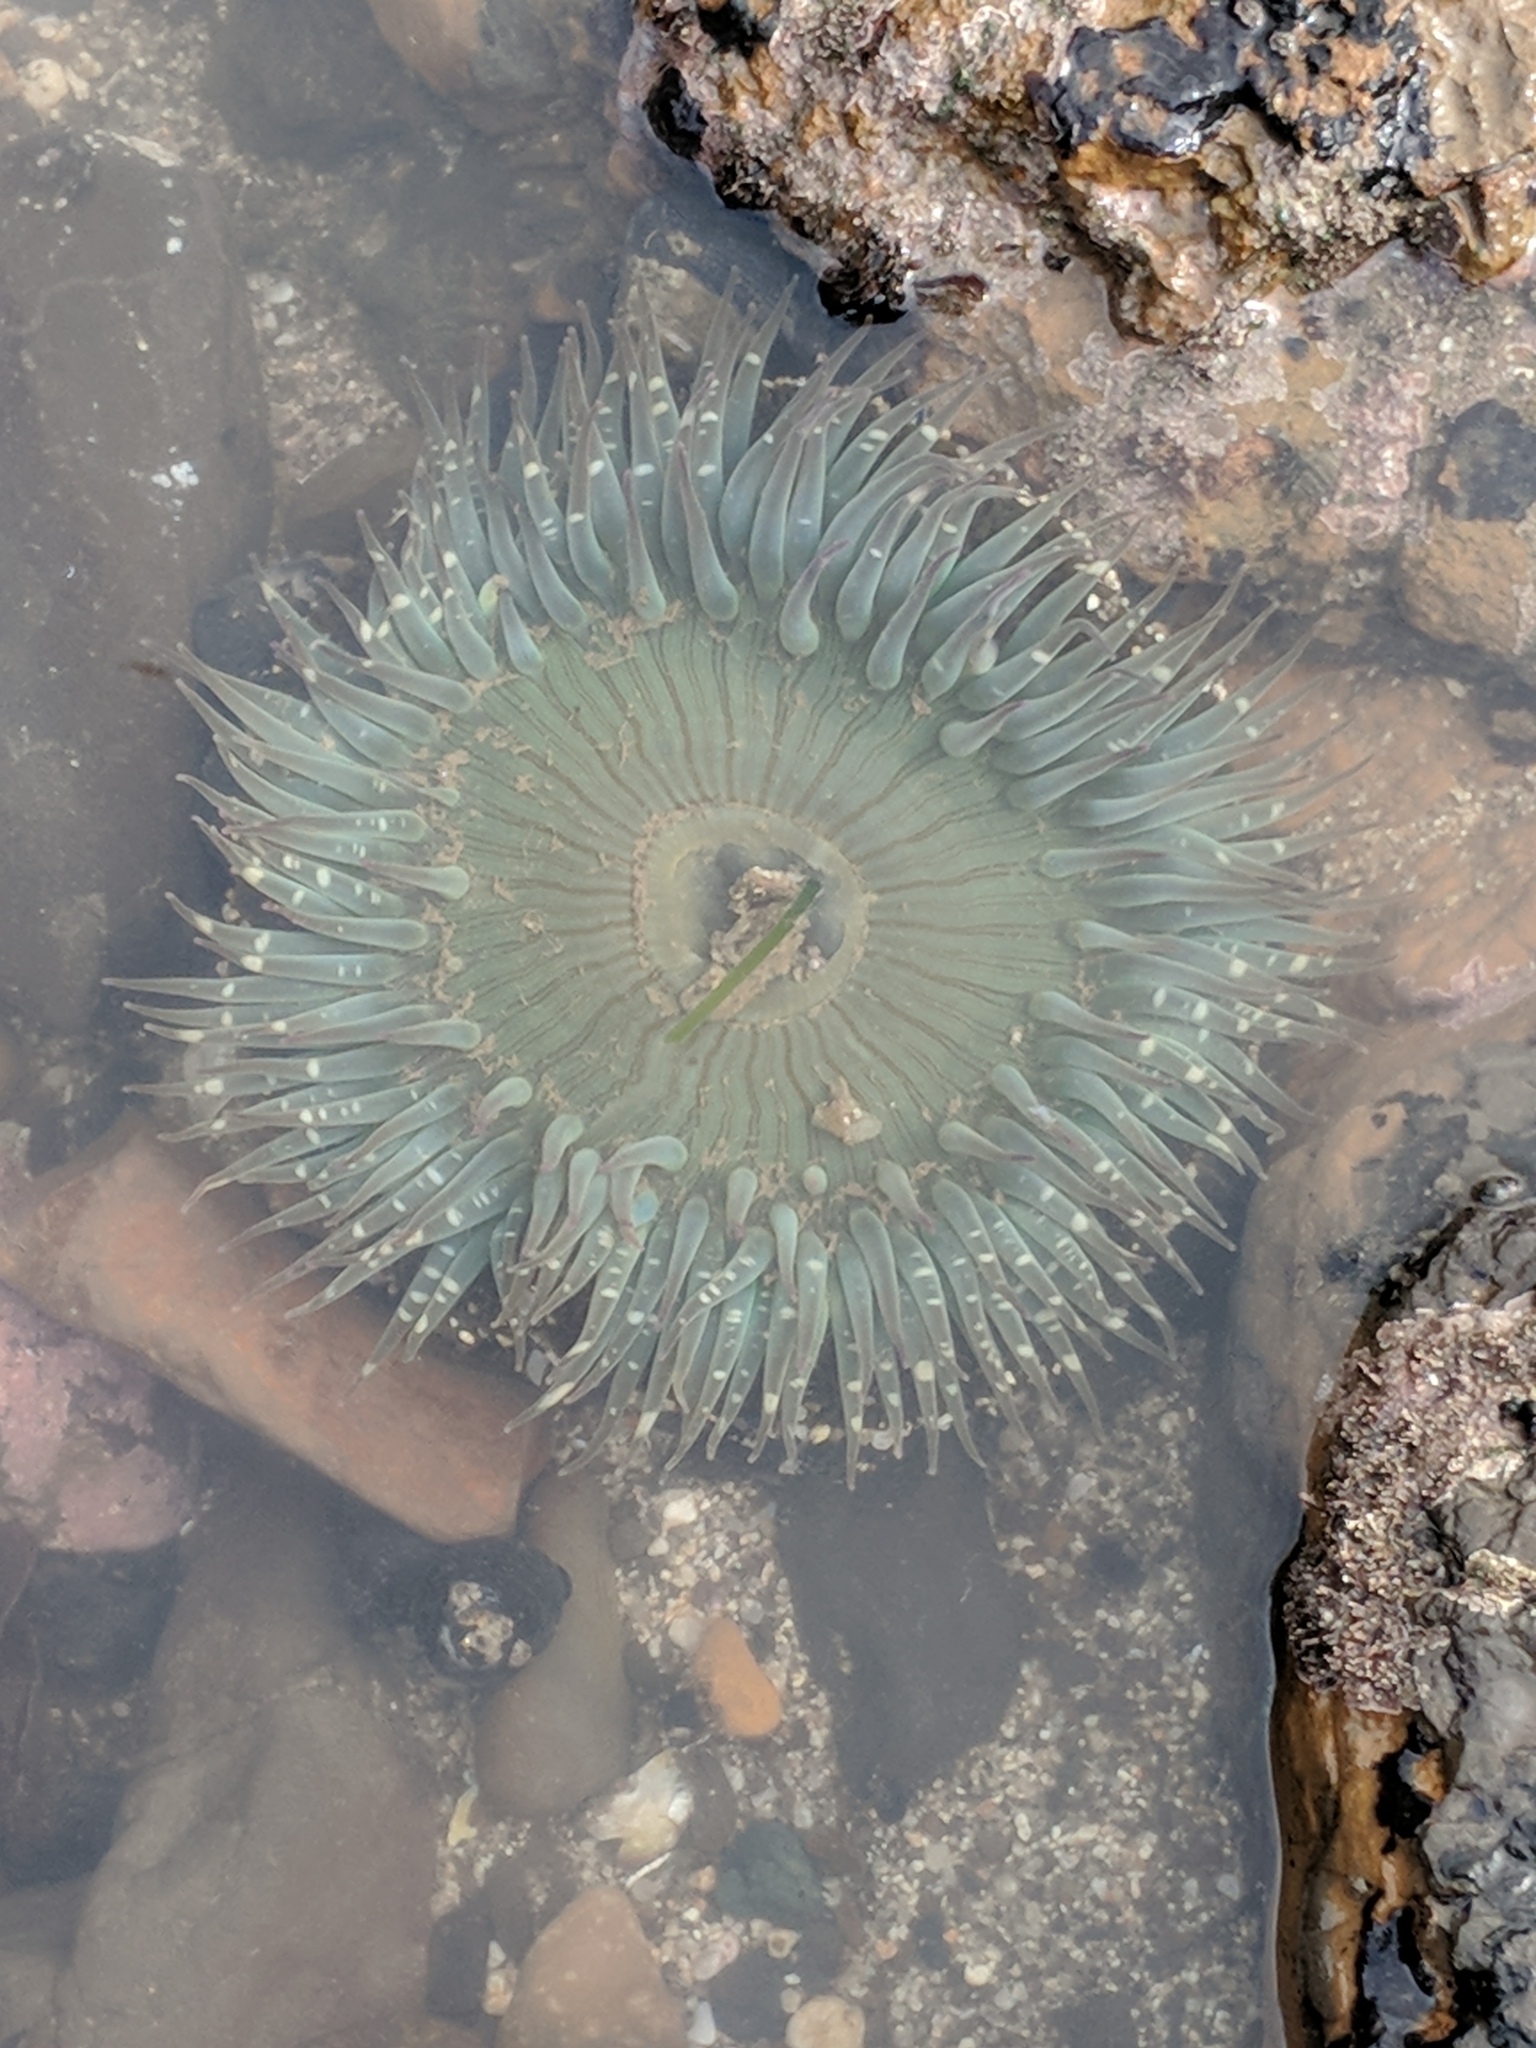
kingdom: Animalia
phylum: Cnidaria
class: Anthozoa
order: Actiniaria
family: Actiniidae
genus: Anthopleura
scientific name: Anthopleura sola
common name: Sun anemone
